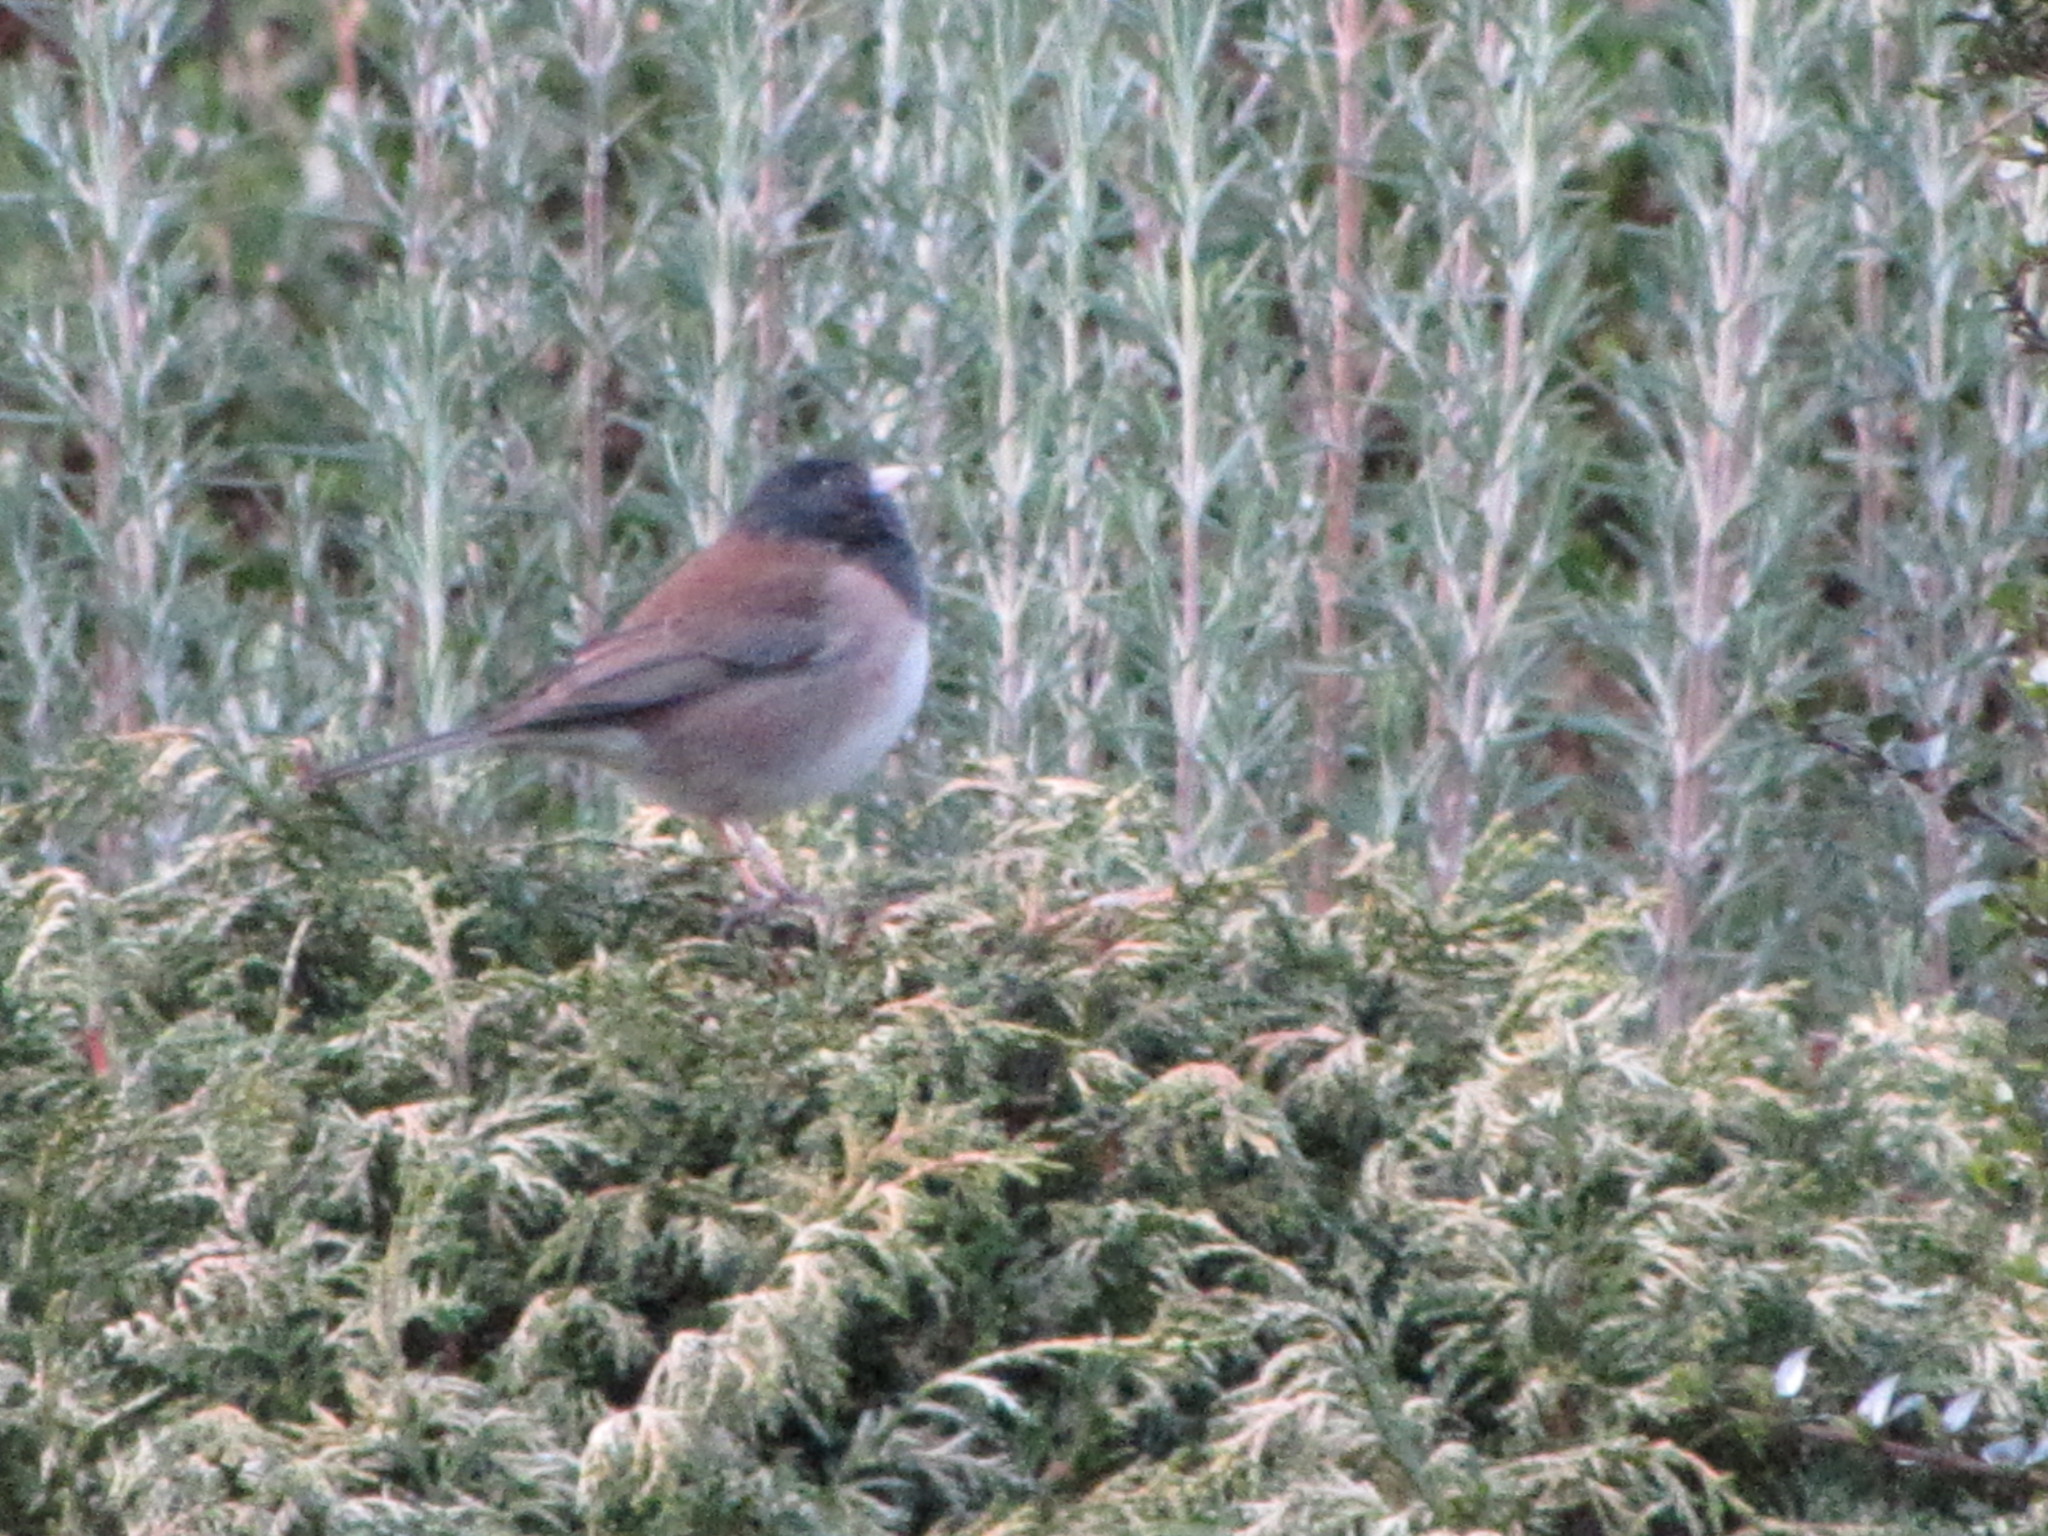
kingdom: Animalia
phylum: Chordata
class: Aves
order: Passeriformes
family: Passerellidae
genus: Junco
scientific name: Junco hyemalis
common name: Dark-eyed junco
